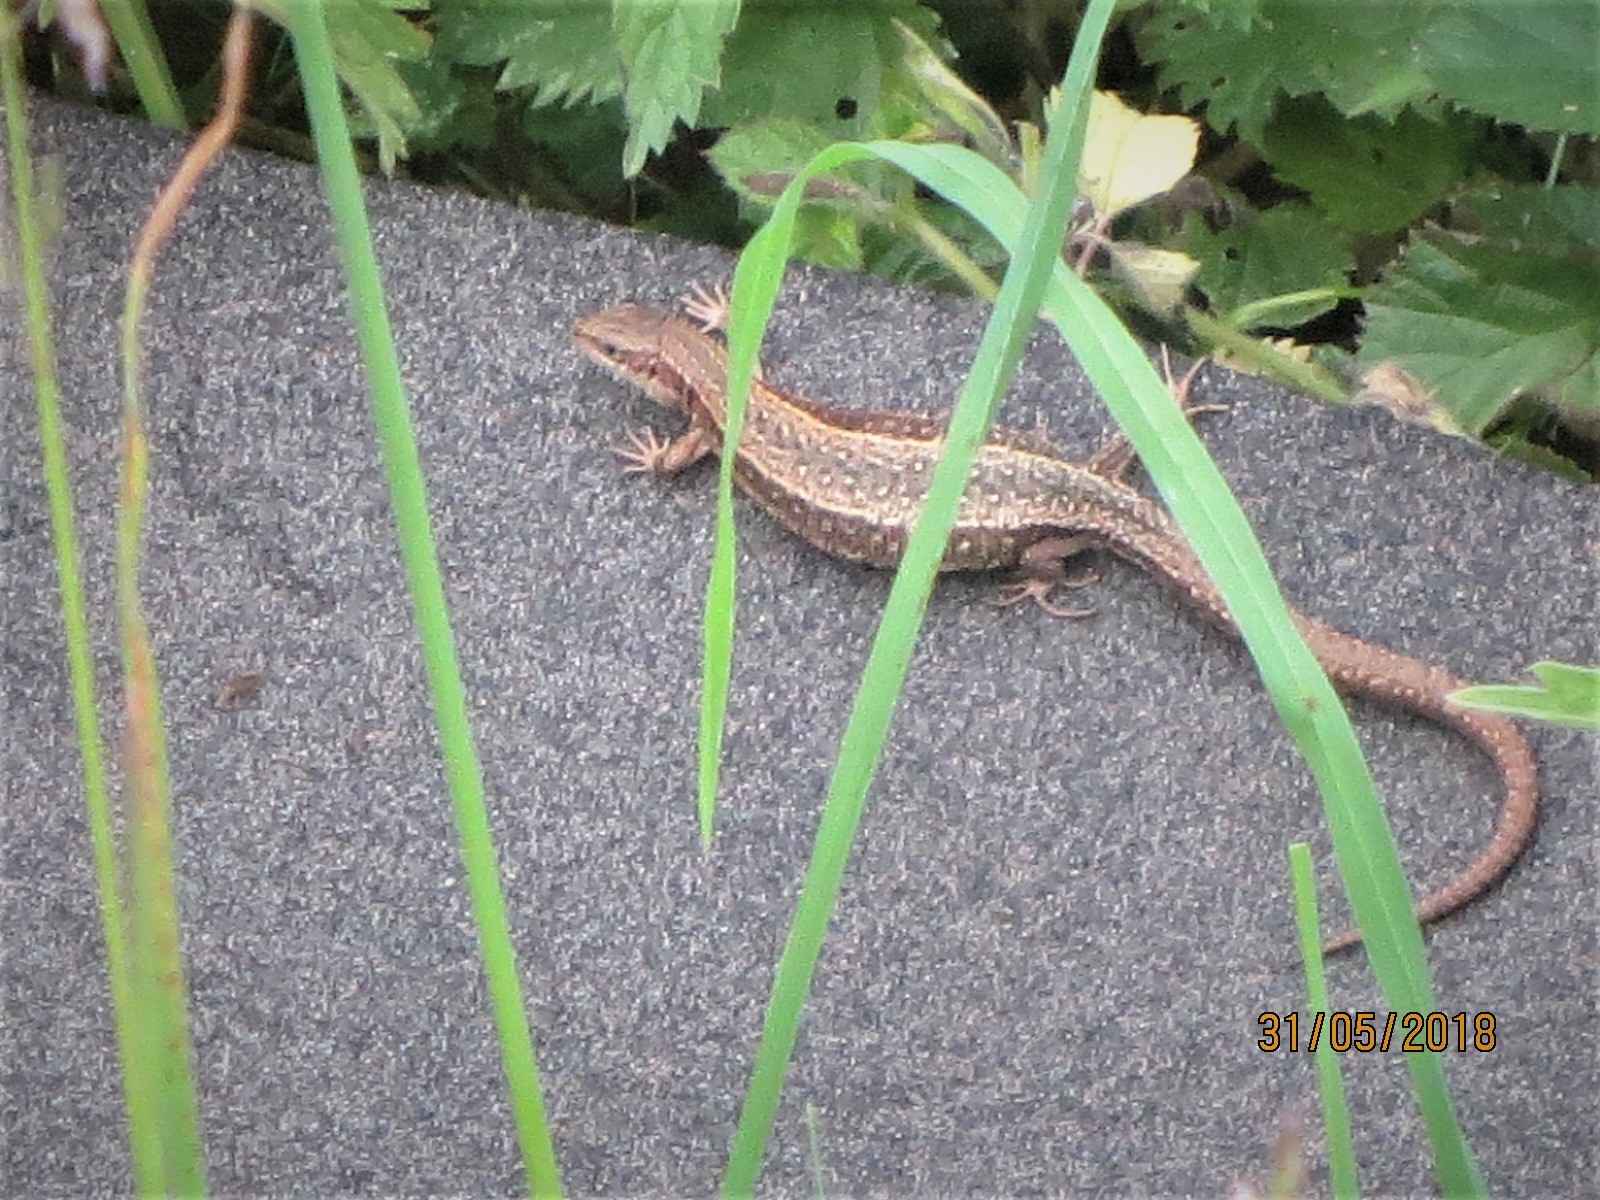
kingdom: Animalia
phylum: Chordata
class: Squamata
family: Lacertidae
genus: Zootoca
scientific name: Zootoca vivipara
